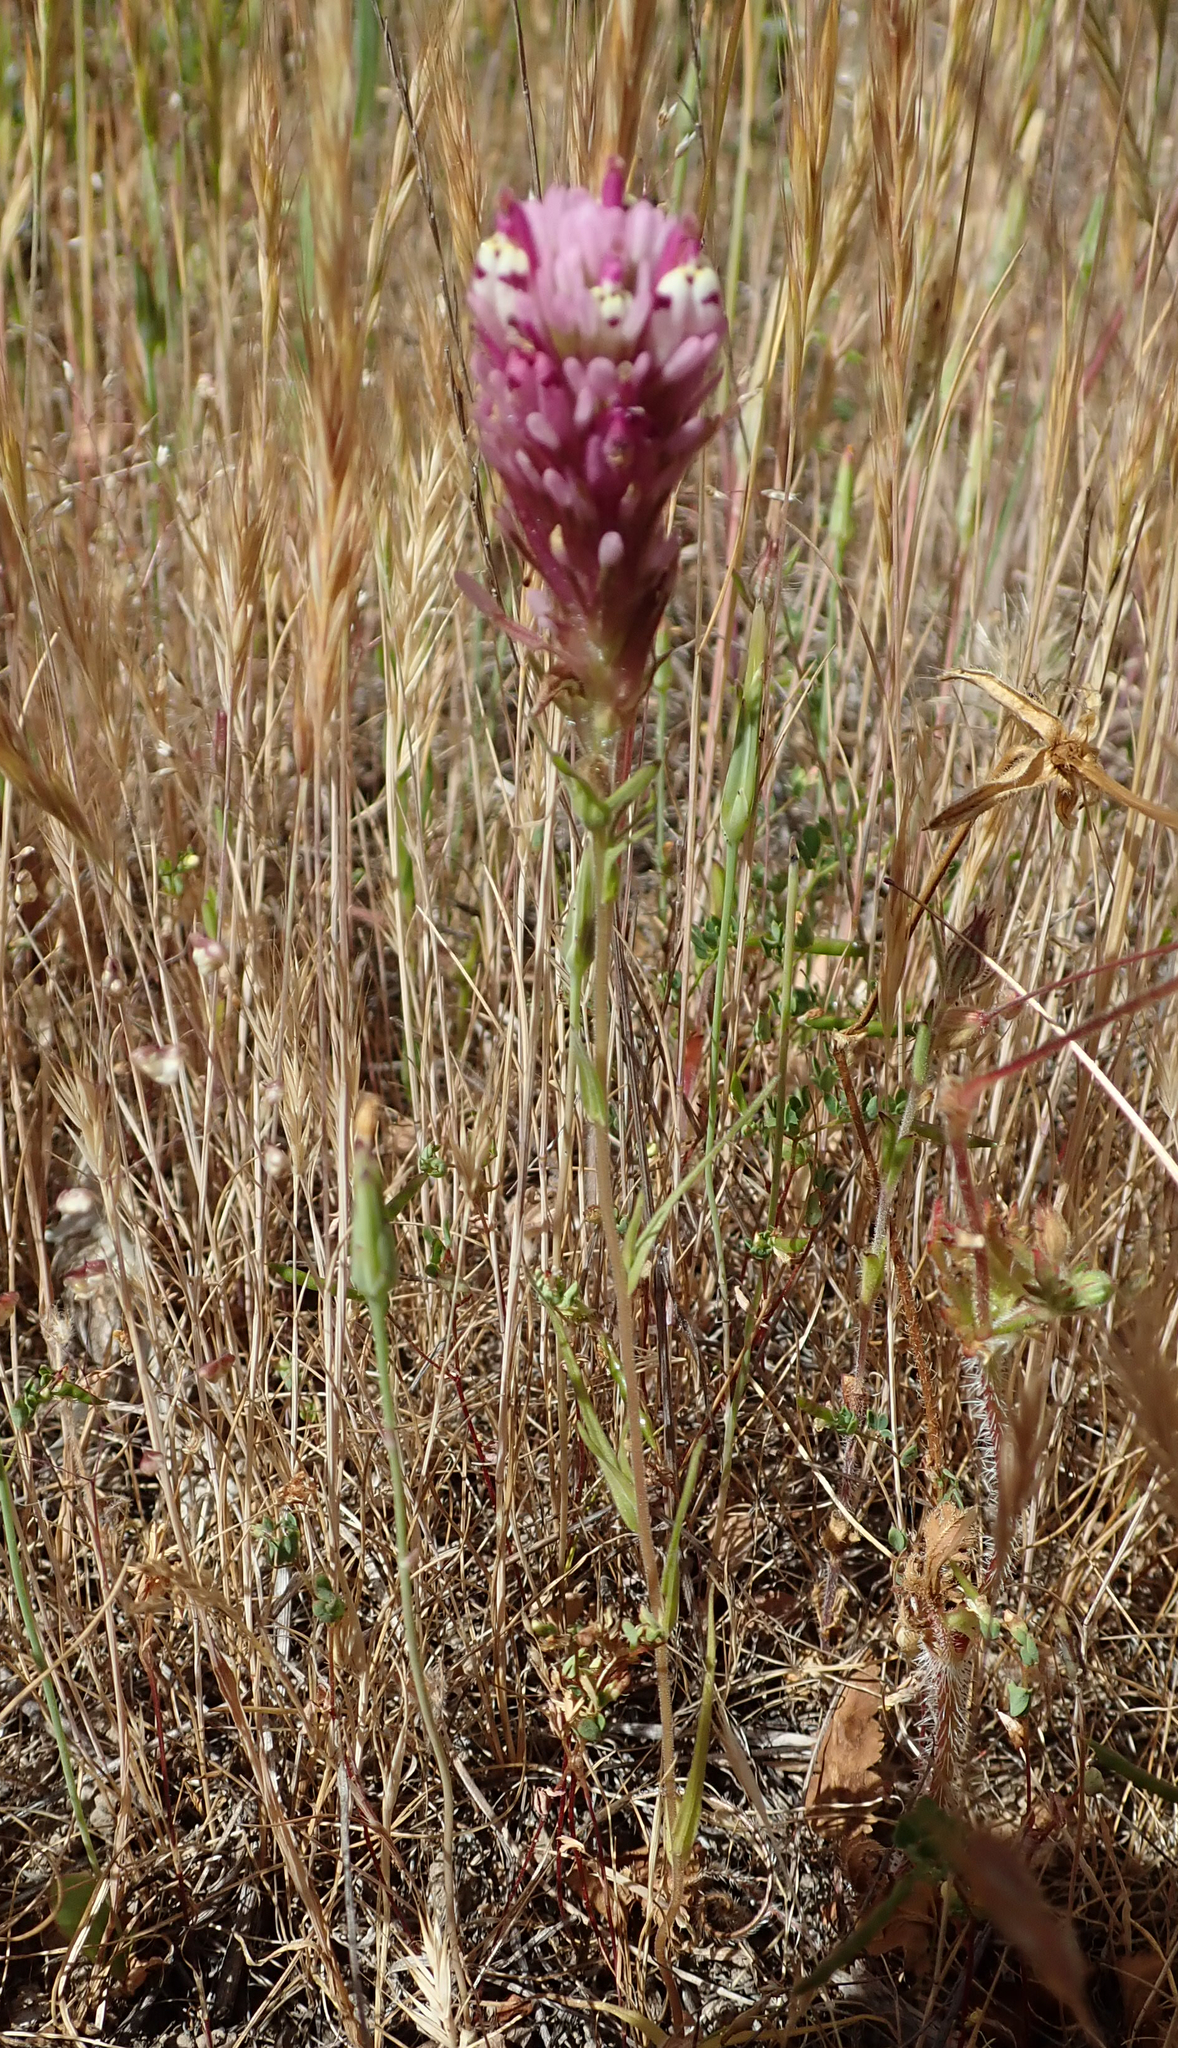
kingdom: Plantae
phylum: Tracheophyta
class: Magnoliopsida
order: Lamiales
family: Orobanchaceae
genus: Castilleja
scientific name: Castilleja densiflora
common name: Dense-flower indian paintbrush
